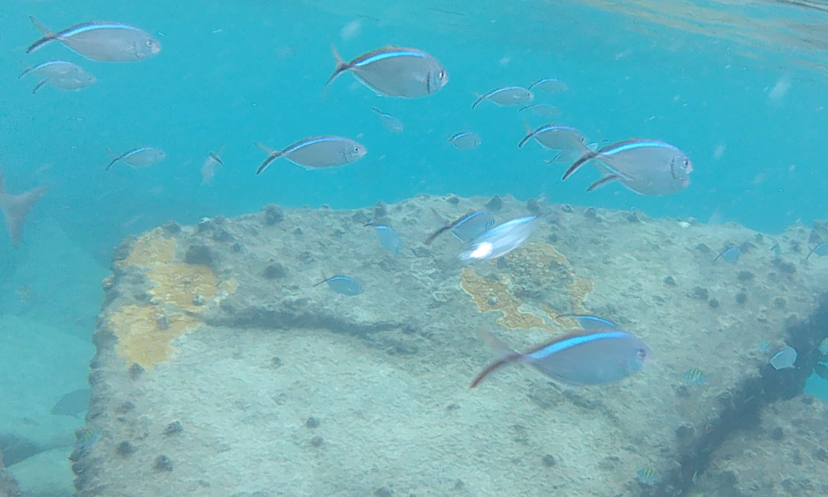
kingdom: Animalia
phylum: Chordata
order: Perciformes
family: Carangidae
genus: Caranx
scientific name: Caranx ruber
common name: Bar jack
